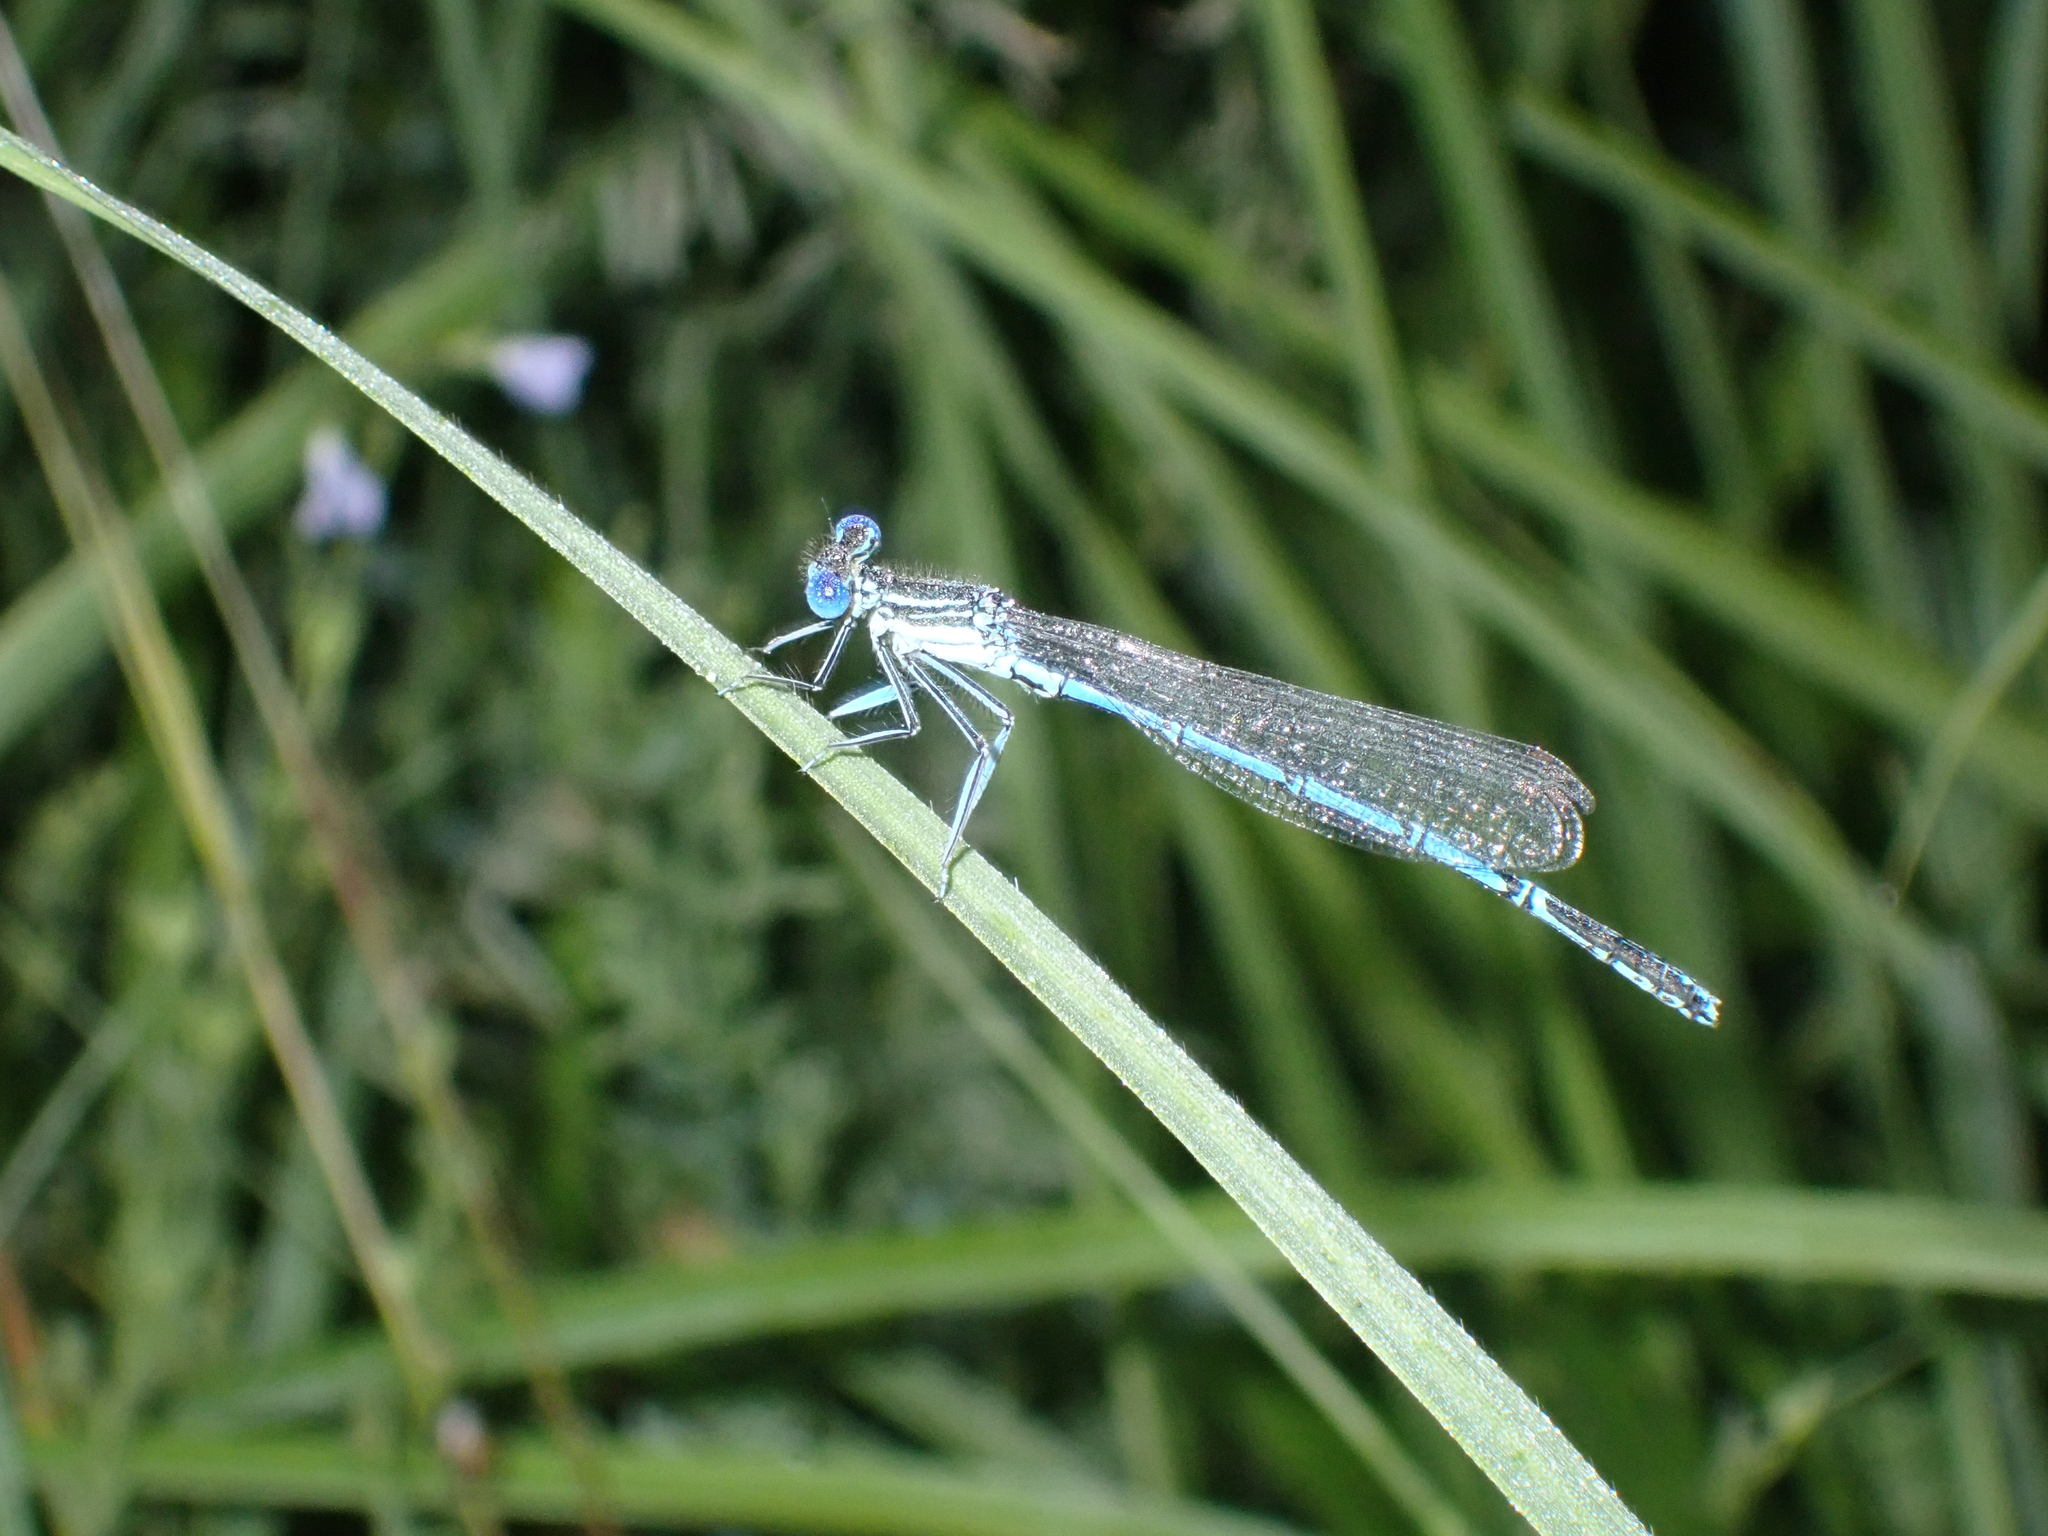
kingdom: Animalia
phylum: Arthropoda
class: Insecta
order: Odonata
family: Platycnemididae
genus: Platycnemis
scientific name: Platycnemis pennipes
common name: White-legged damselfly
